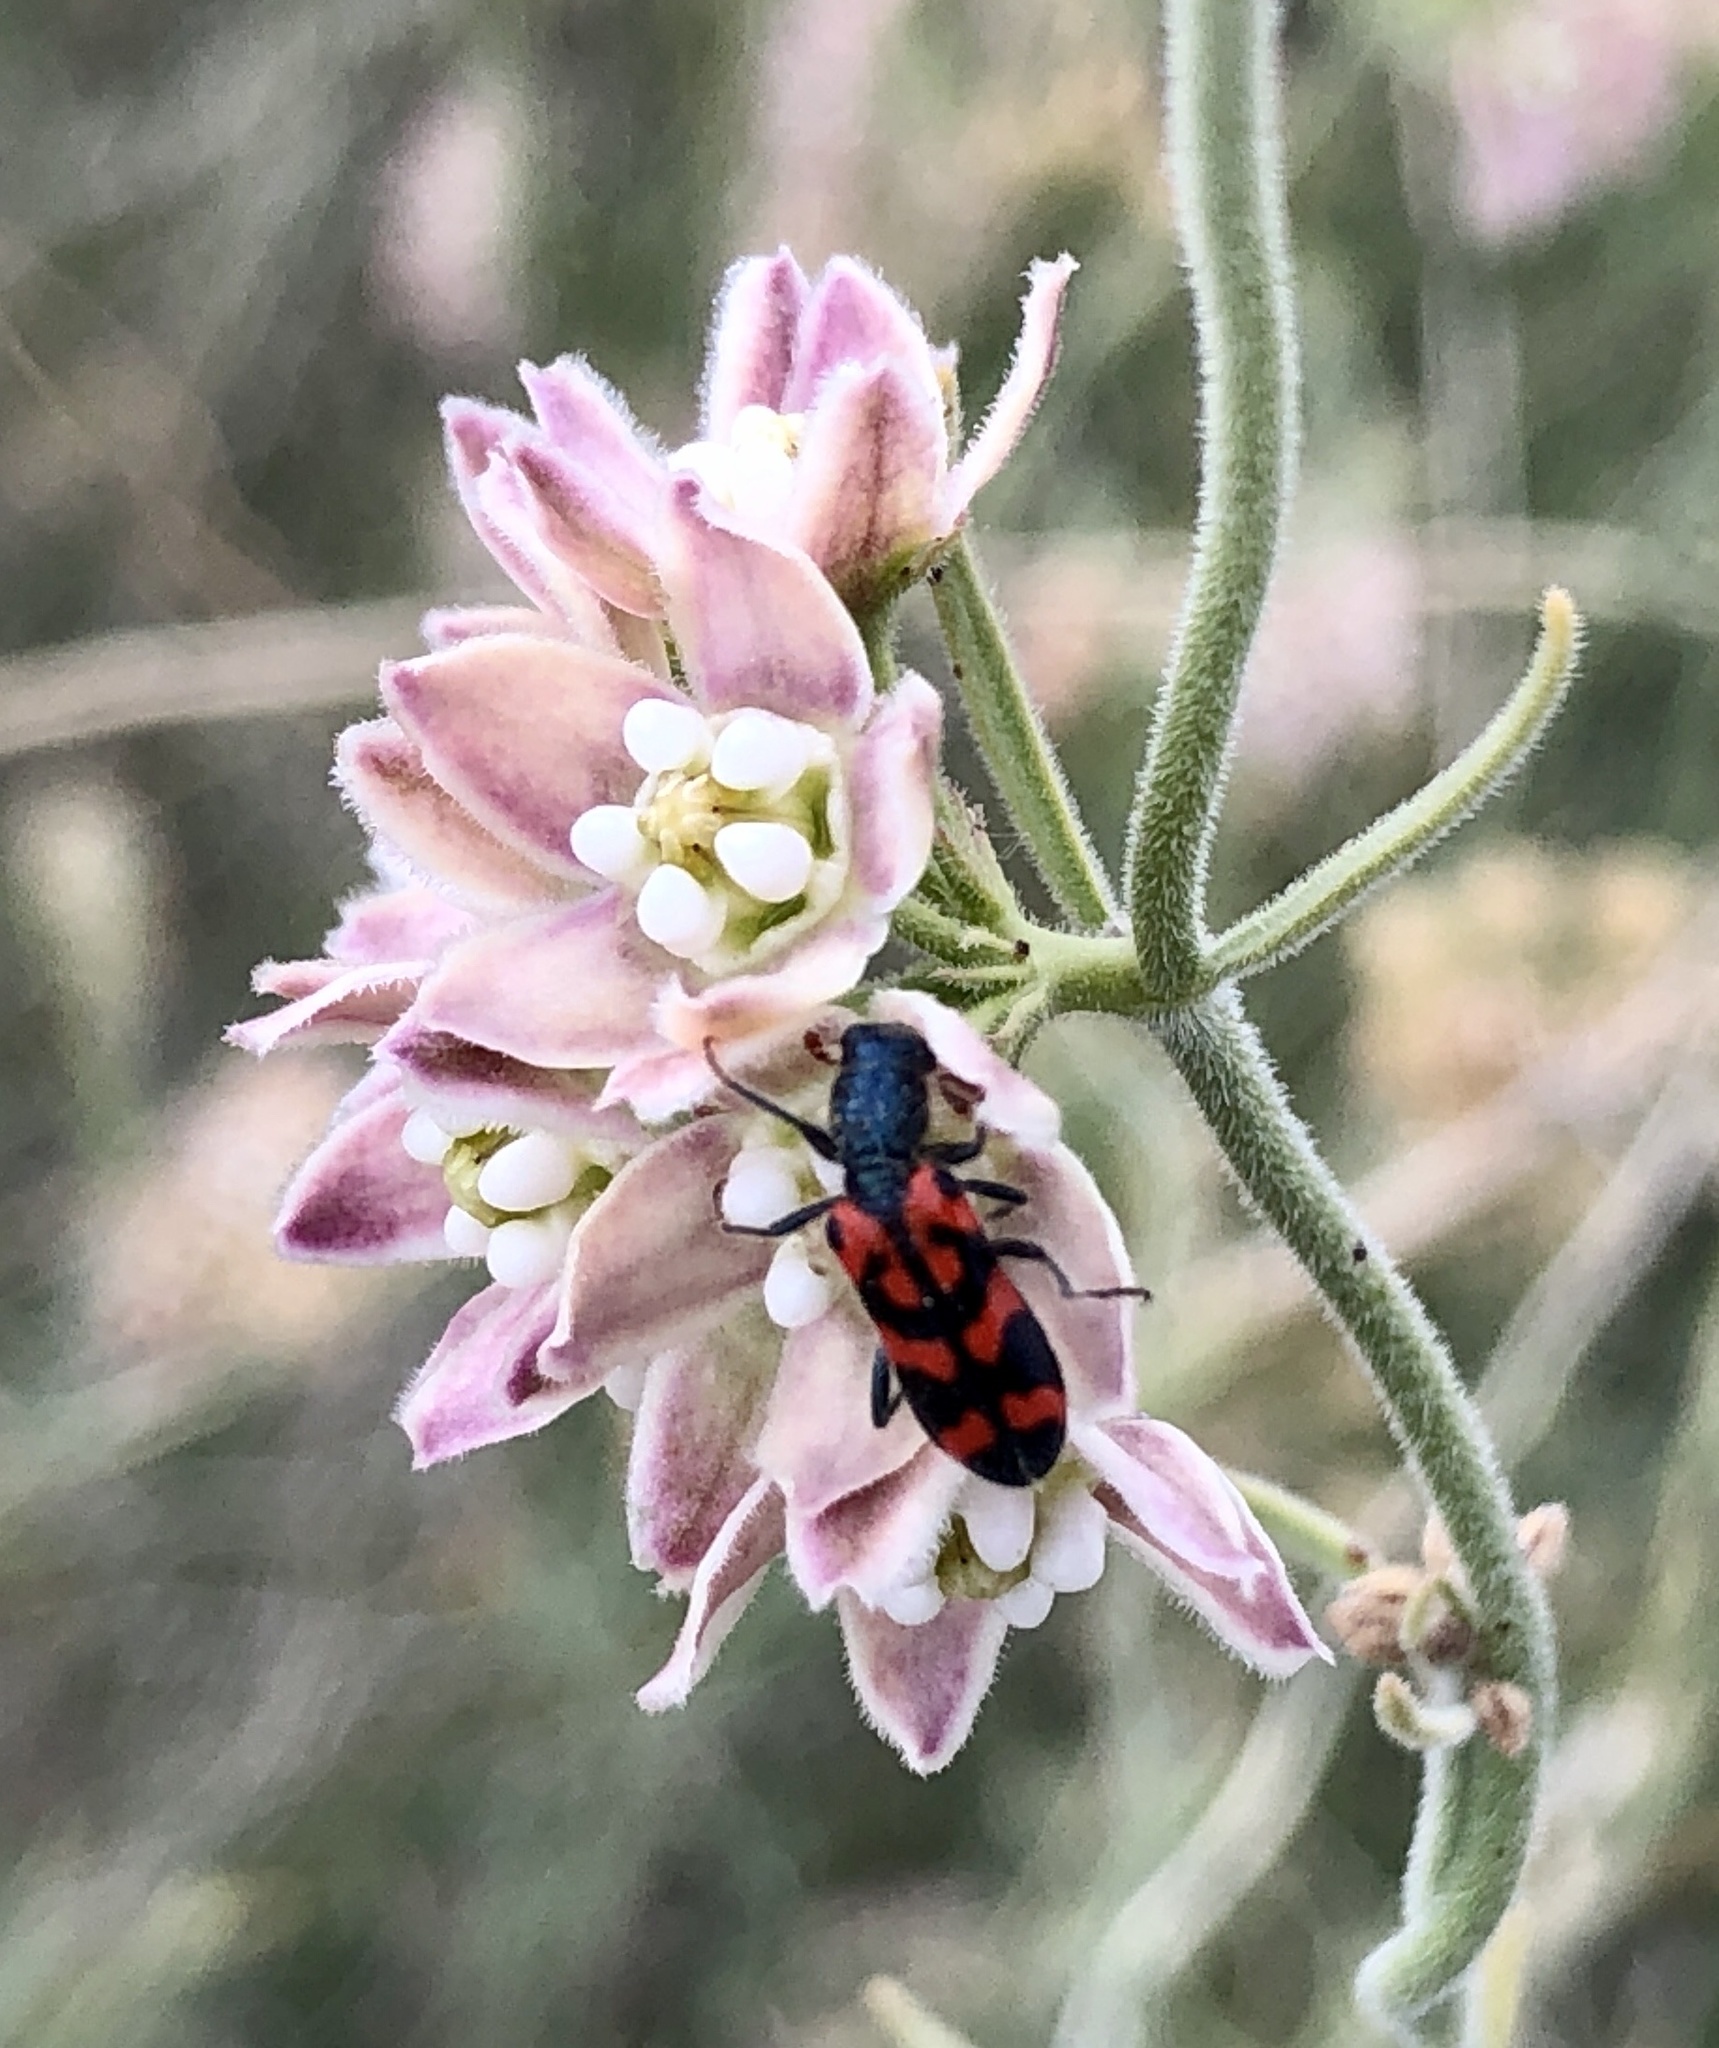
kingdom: Animalia
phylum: Arthropoda
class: Insecta
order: Coleoptera
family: Cleridae
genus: Trichodes
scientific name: Trichodes ornatus
